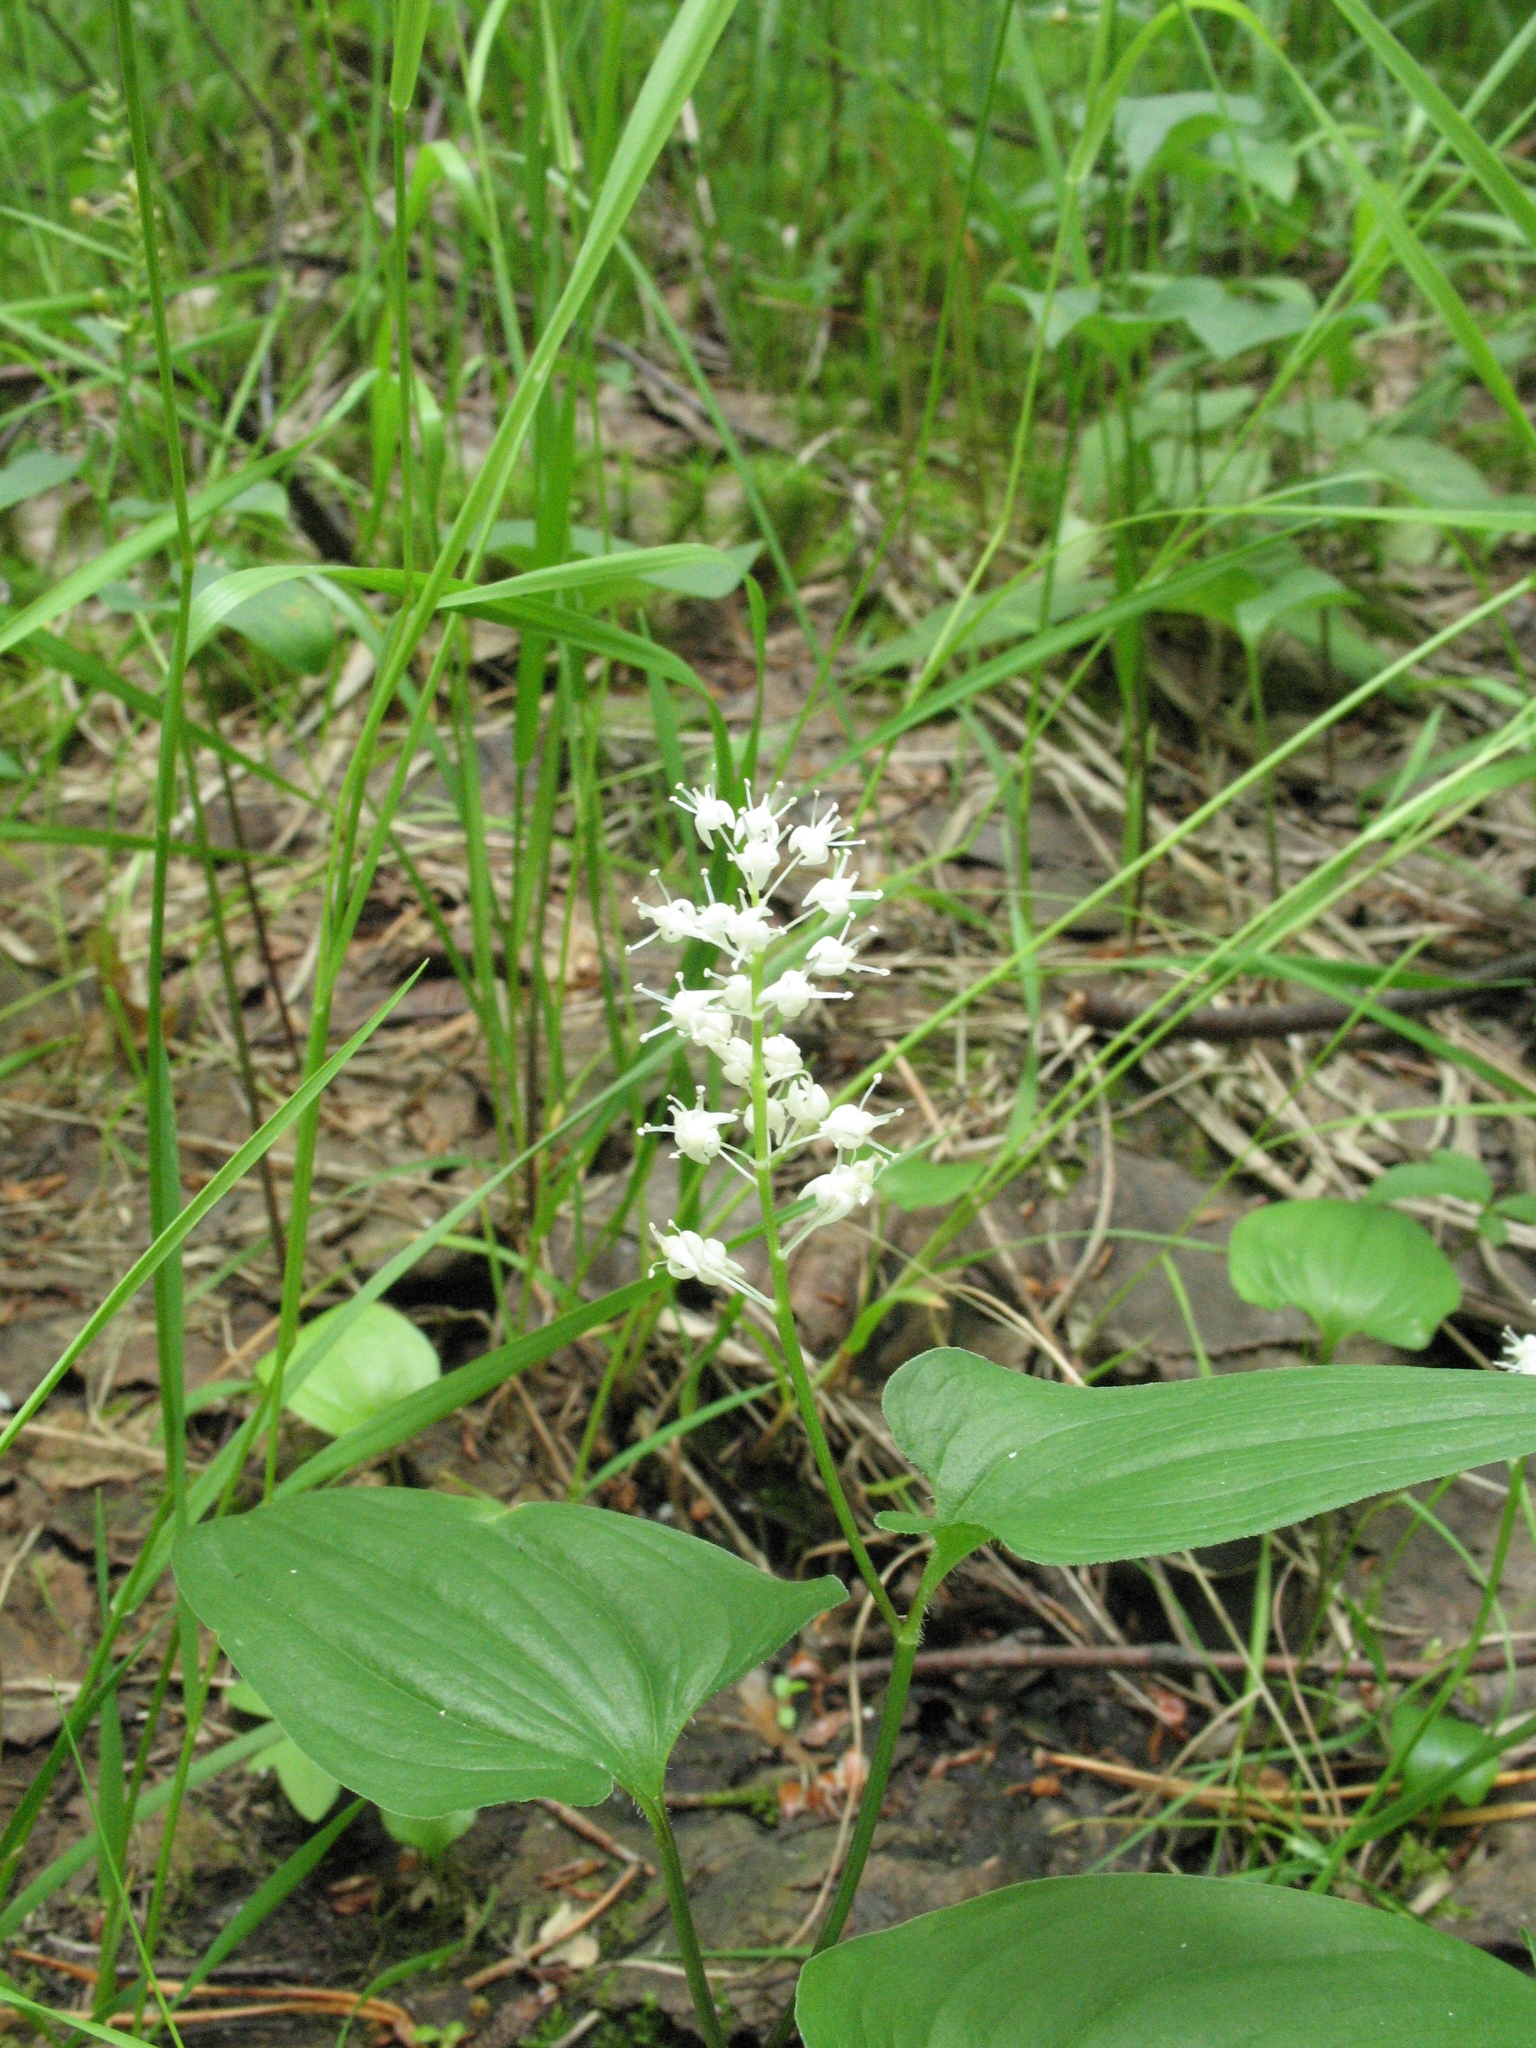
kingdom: Plantae
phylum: Tracheophyta
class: Liliopsida
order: Asparagales
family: Asparagaceae
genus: Maianthemum
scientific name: Maianthemum bifolium
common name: May lily
